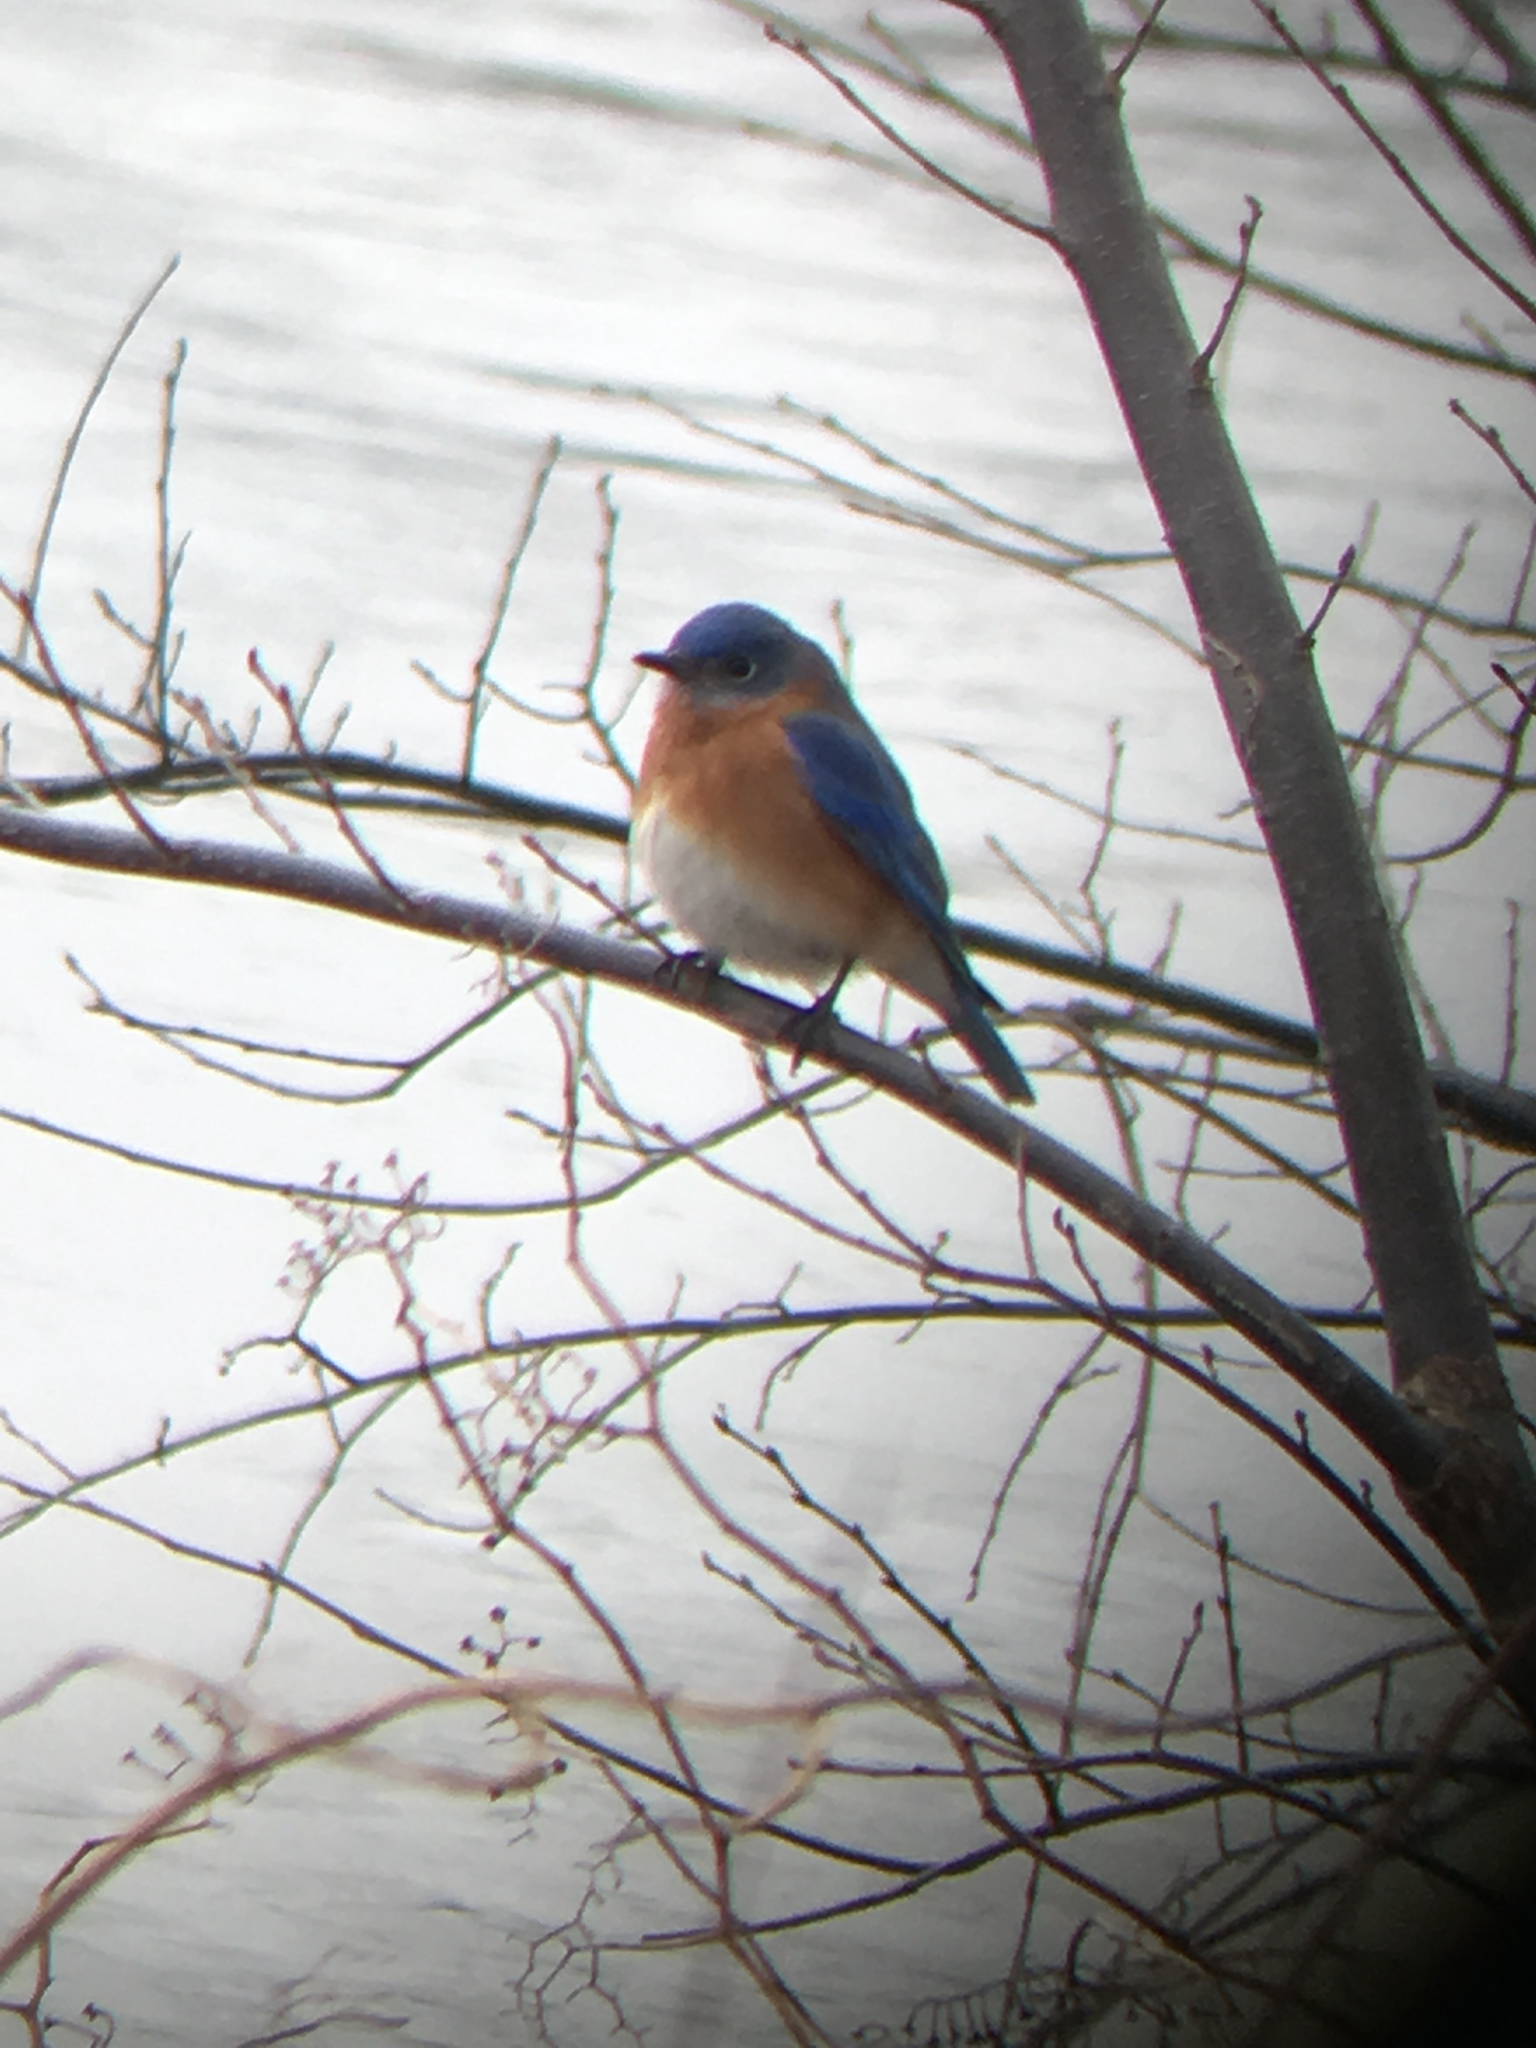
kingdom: Animalia
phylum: Chordata
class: Aves
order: Passeriformes
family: Turdidae
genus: Sialia
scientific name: Sialia sialis
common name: Eastern bluebird
